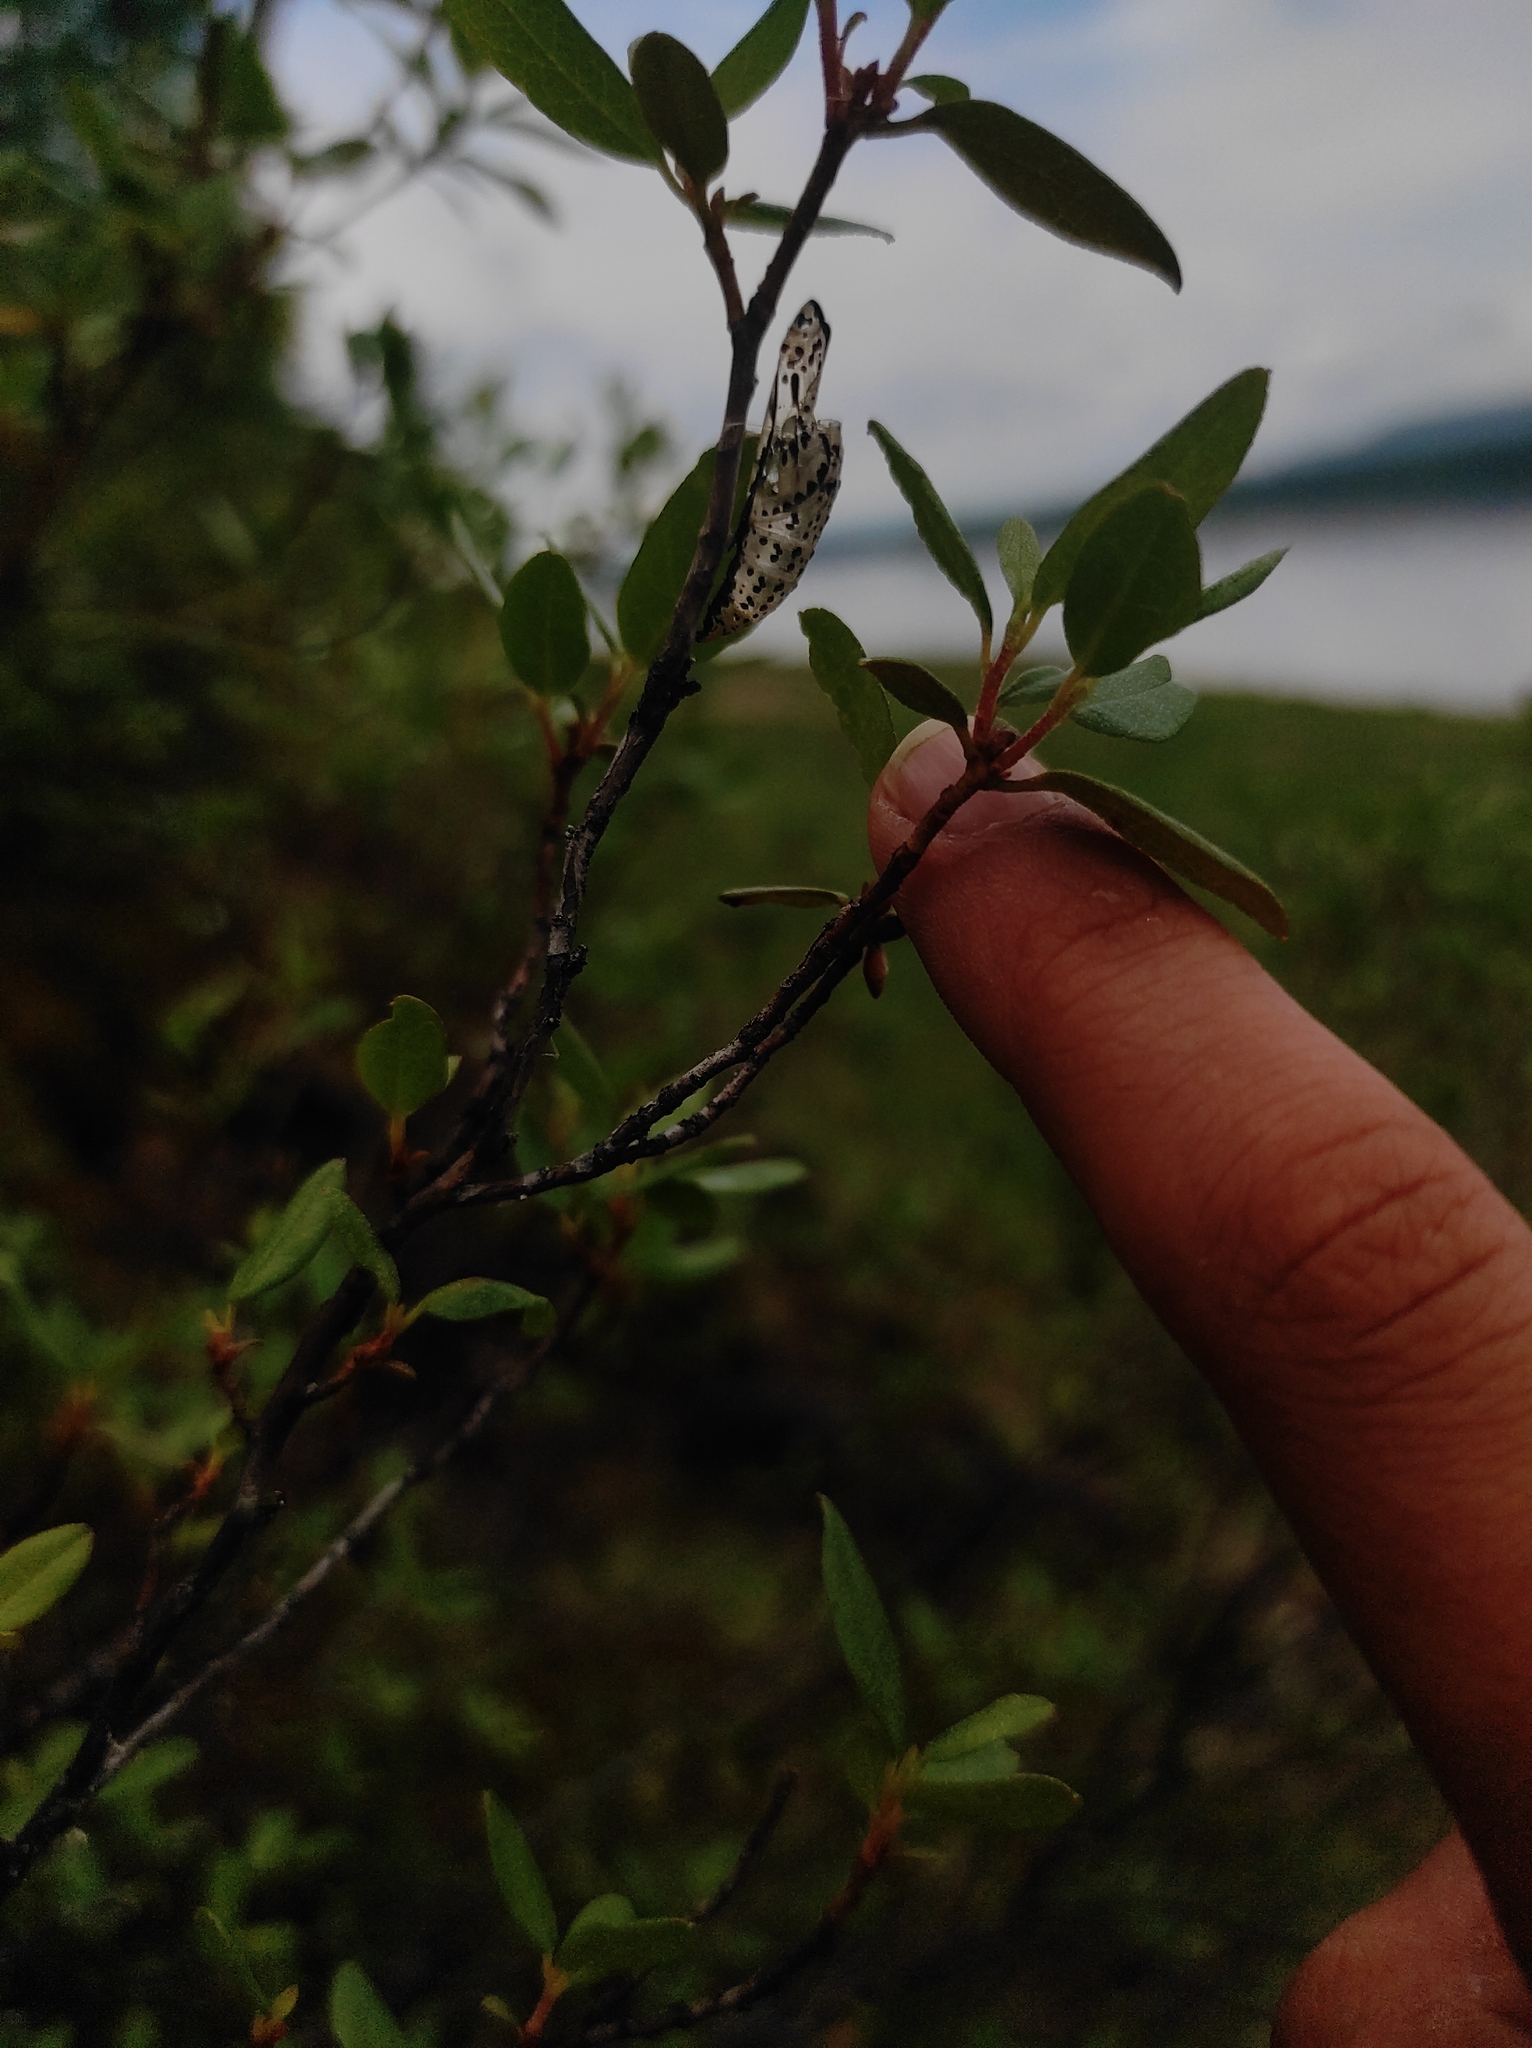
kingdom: Animalia
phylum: Arthropoda
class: Insecta
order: Lepidoptera
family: Pieridae
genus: Aporia
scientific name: Aporia crataegi
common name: Black-veined white
